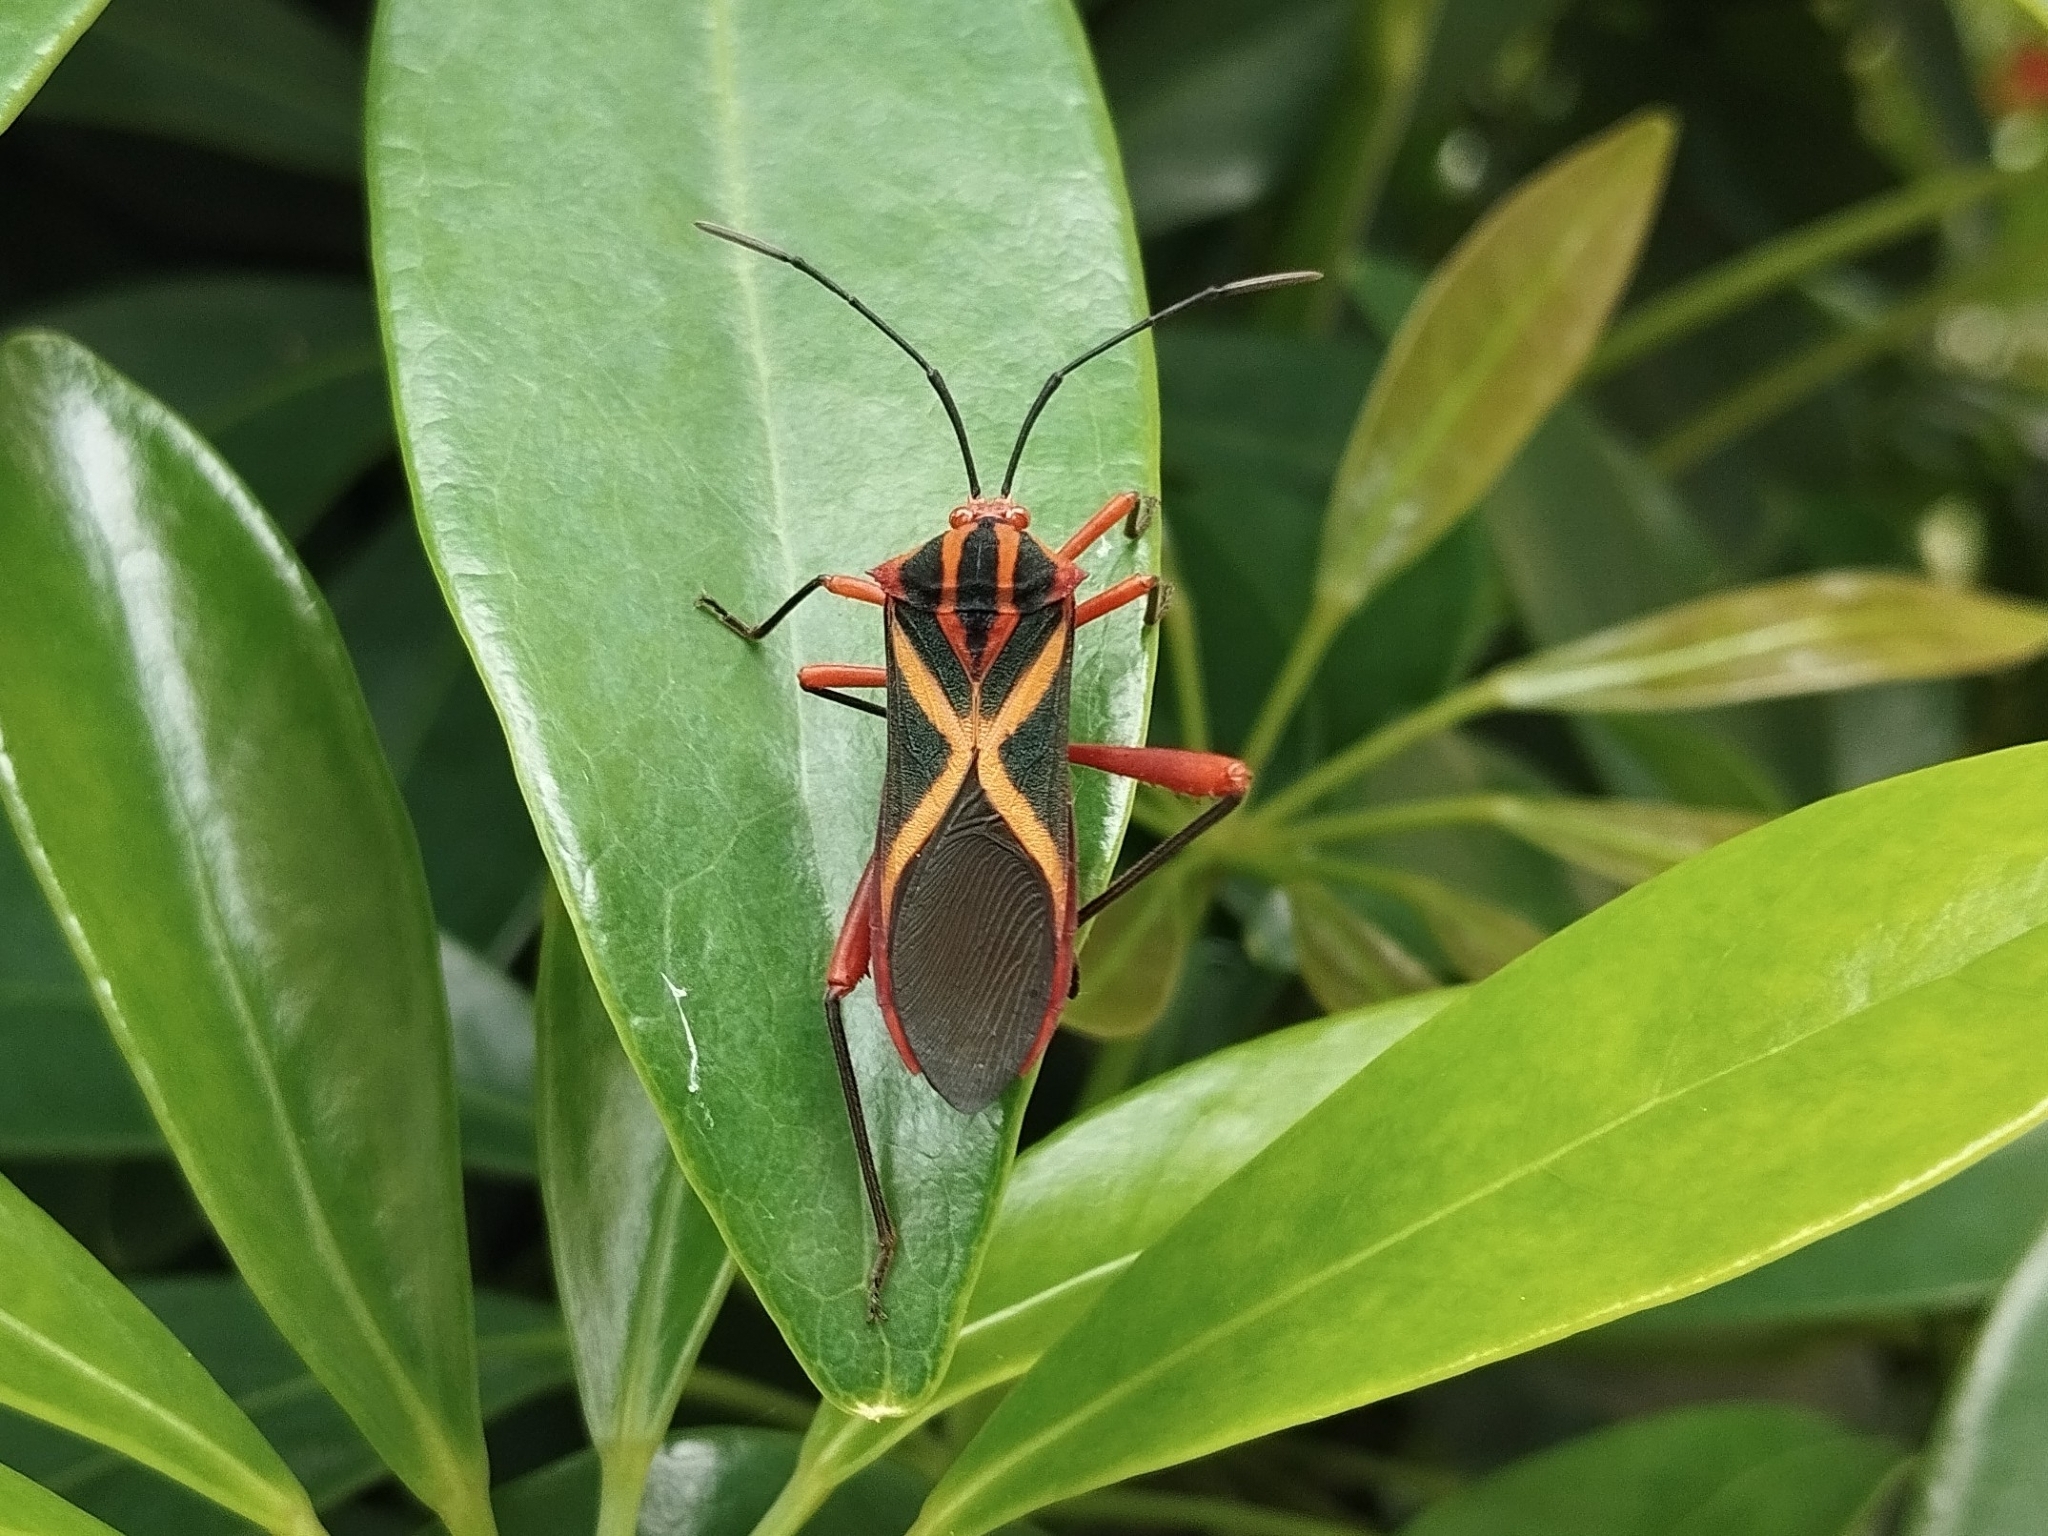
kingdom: Animalia
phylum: Arthropoda
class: Insecta
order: Hemiptera
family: Coreidae
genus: Machtima
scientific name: Machtima crucigera
